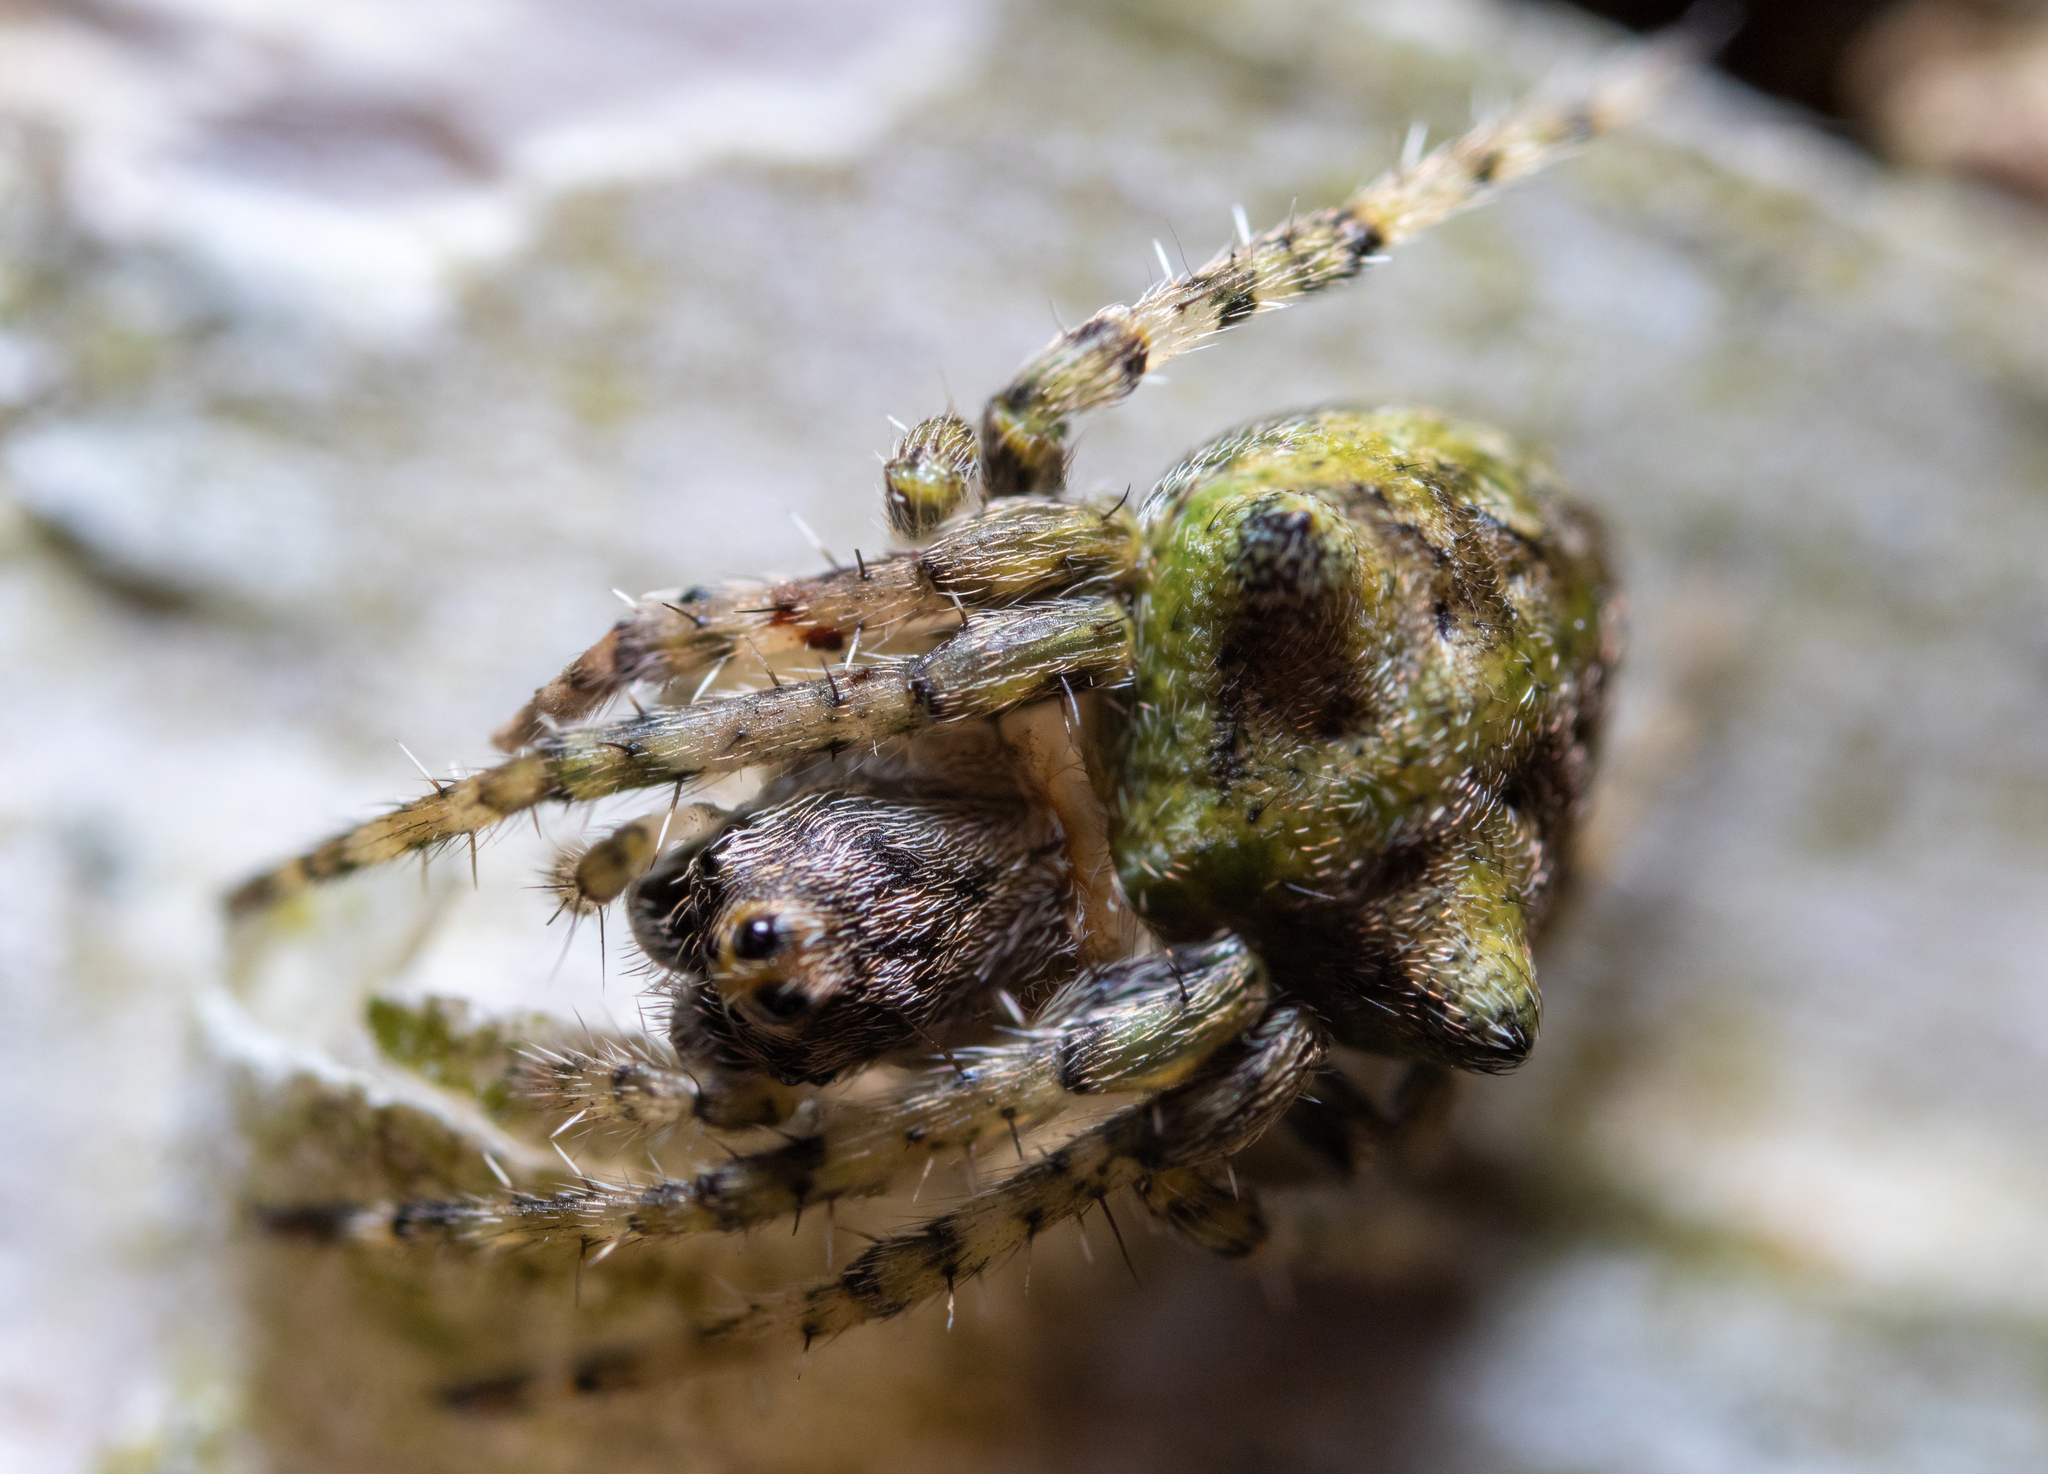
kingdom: Animalia
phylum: Arthropoda
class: Arachnida
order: Araneae
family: Araneidae
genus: Gibbaranea
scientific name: Gibbaranea gibbosa
